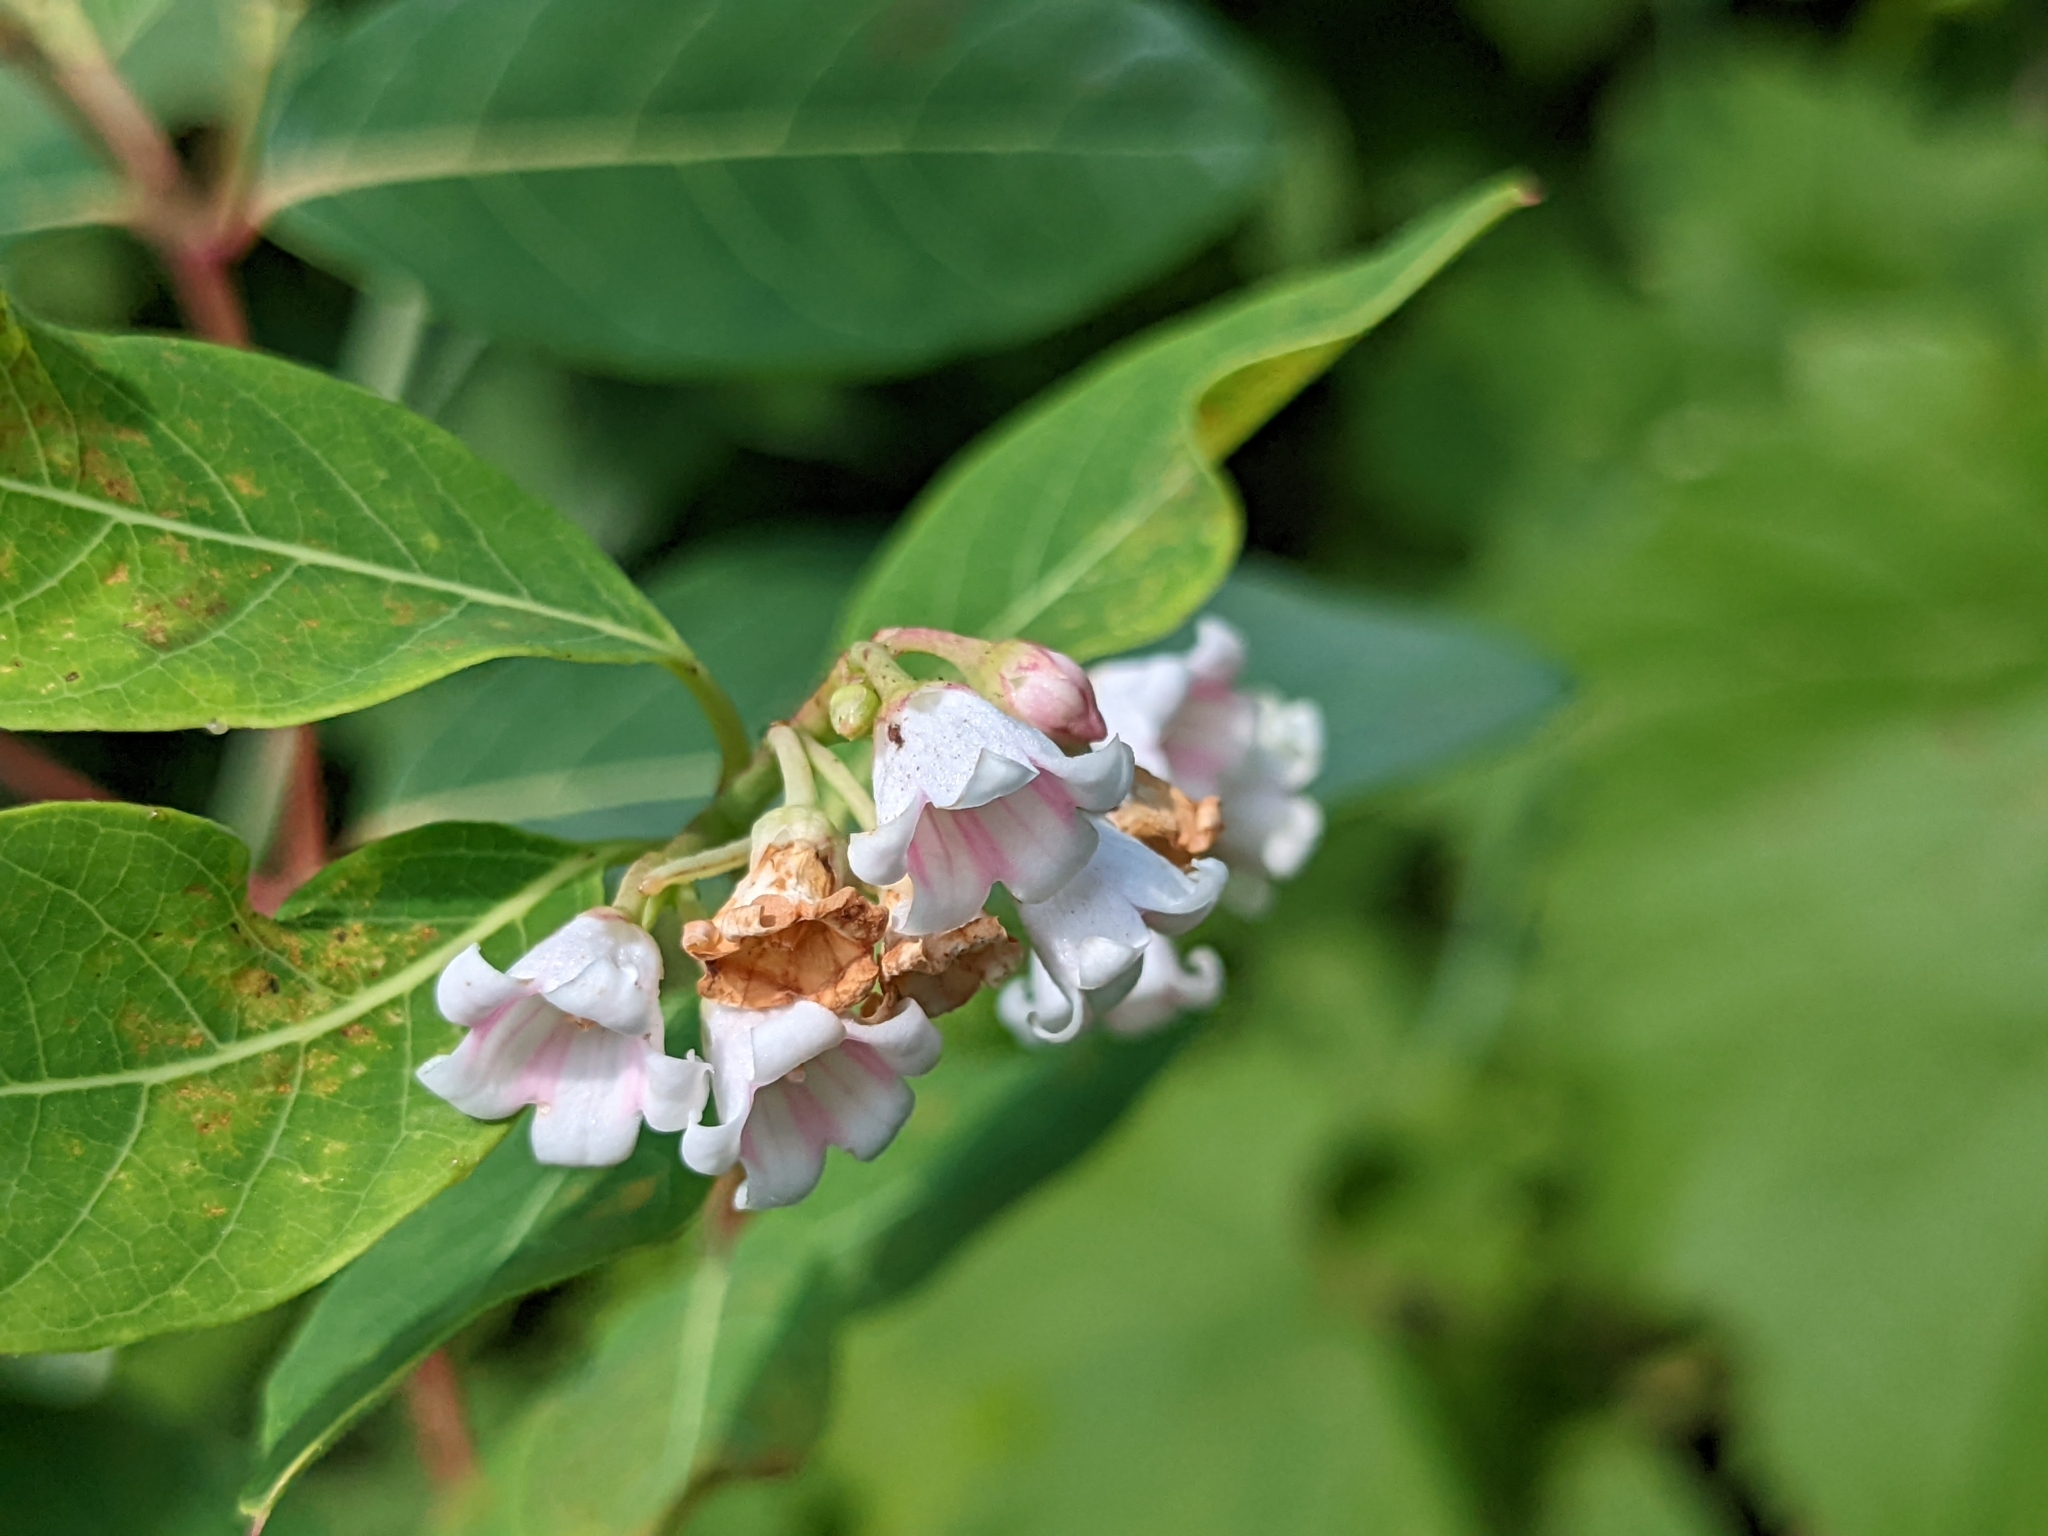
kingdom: Plantae
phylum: Tracheophyta
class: Magnoliopsida
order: Gentianales
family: Apocynaceae
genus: Apocynum
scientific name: Apocynum androsaemifolium
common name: Spreading dogbane
